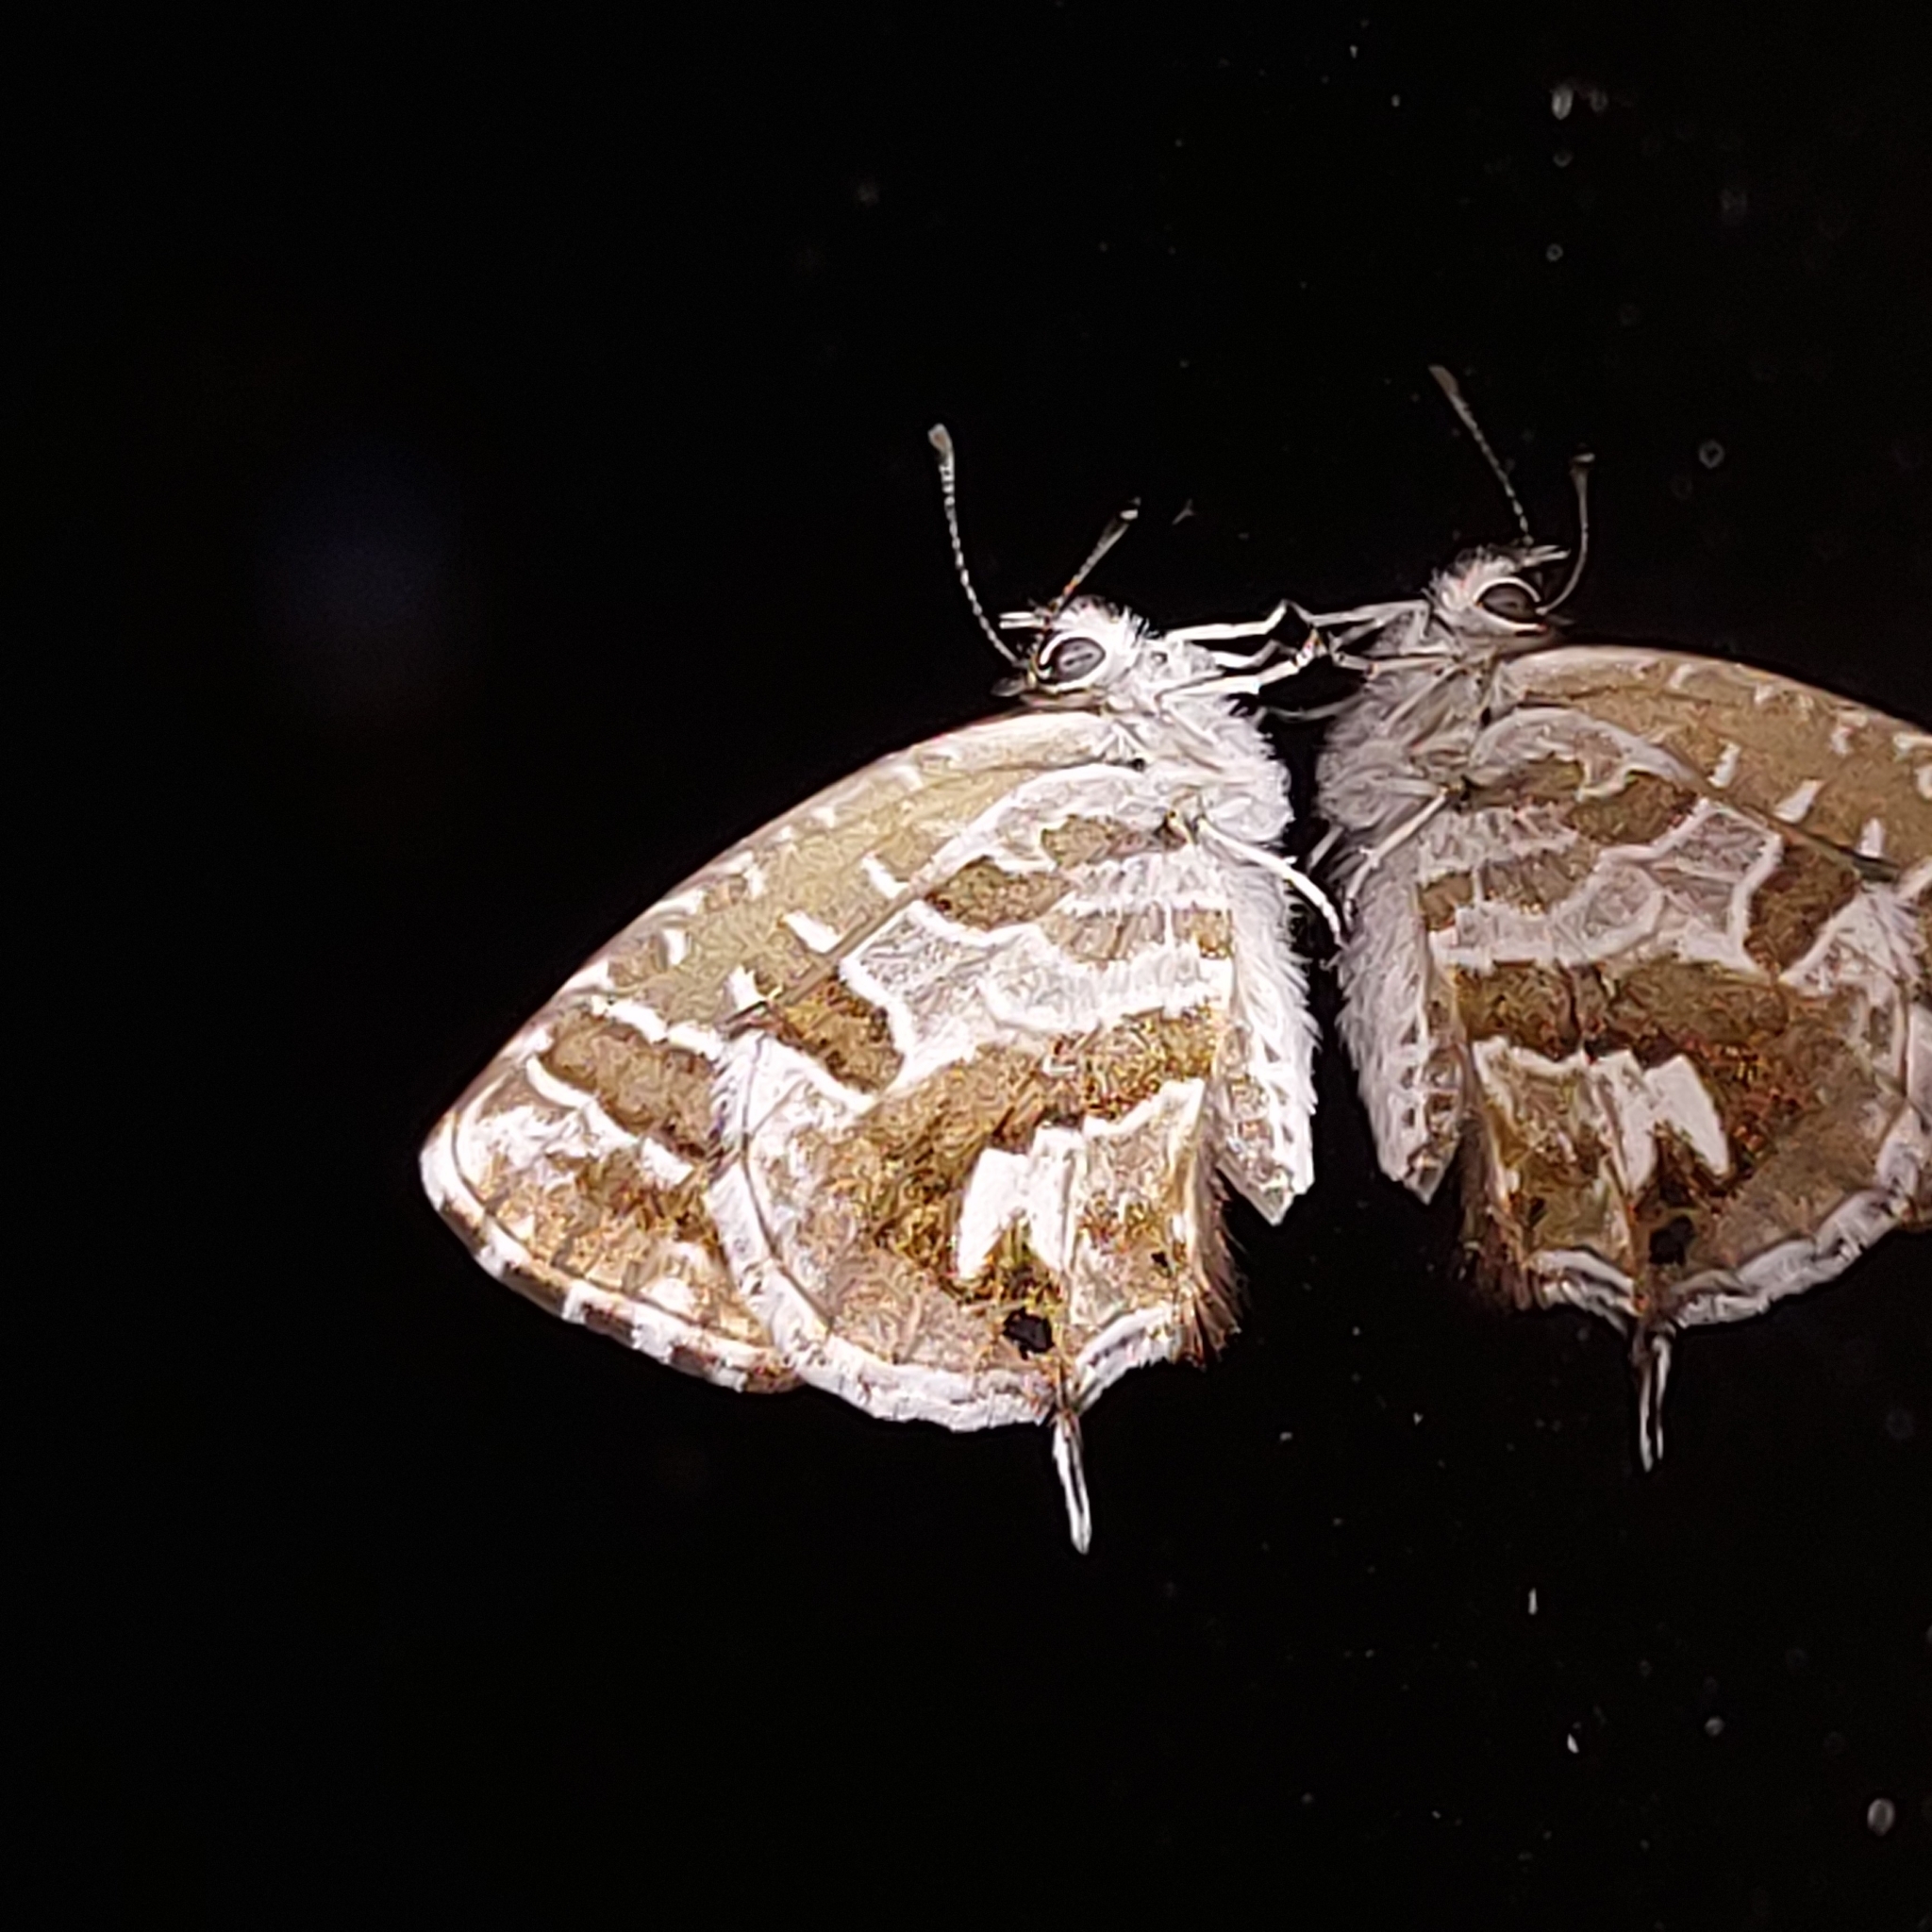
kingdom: Animalia
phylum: Arthropoda
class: Insecta
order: Lepidoptera
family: Lycaenidae
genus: Cacyreus
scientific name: Cacyreus marshalli
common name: Geranium bronze
